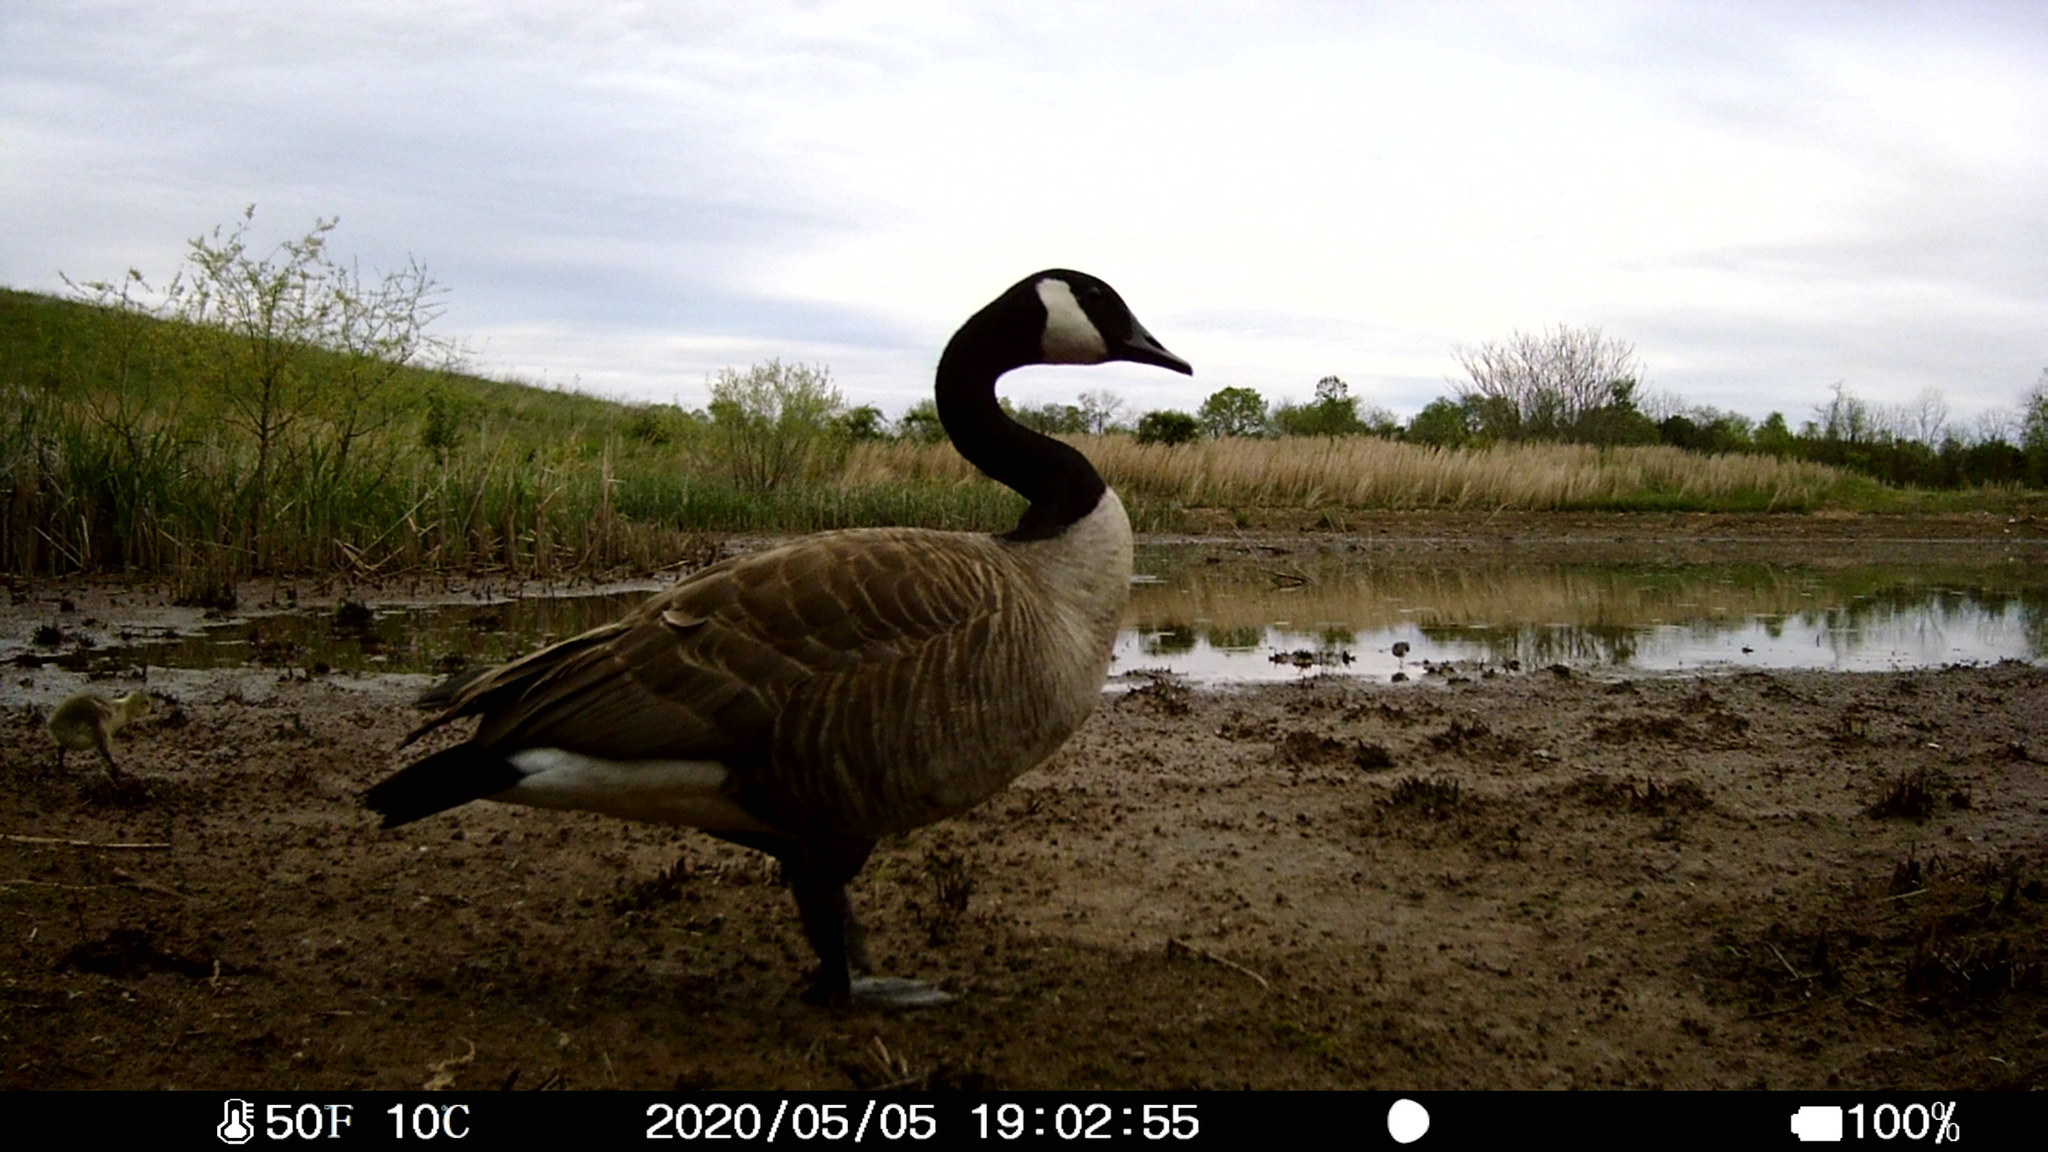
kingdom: Animalia
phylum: Chordata
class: Aves
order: Anseriformes
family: Anatidae
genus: Branta
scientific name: Branta canadensis
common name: Canada goose
